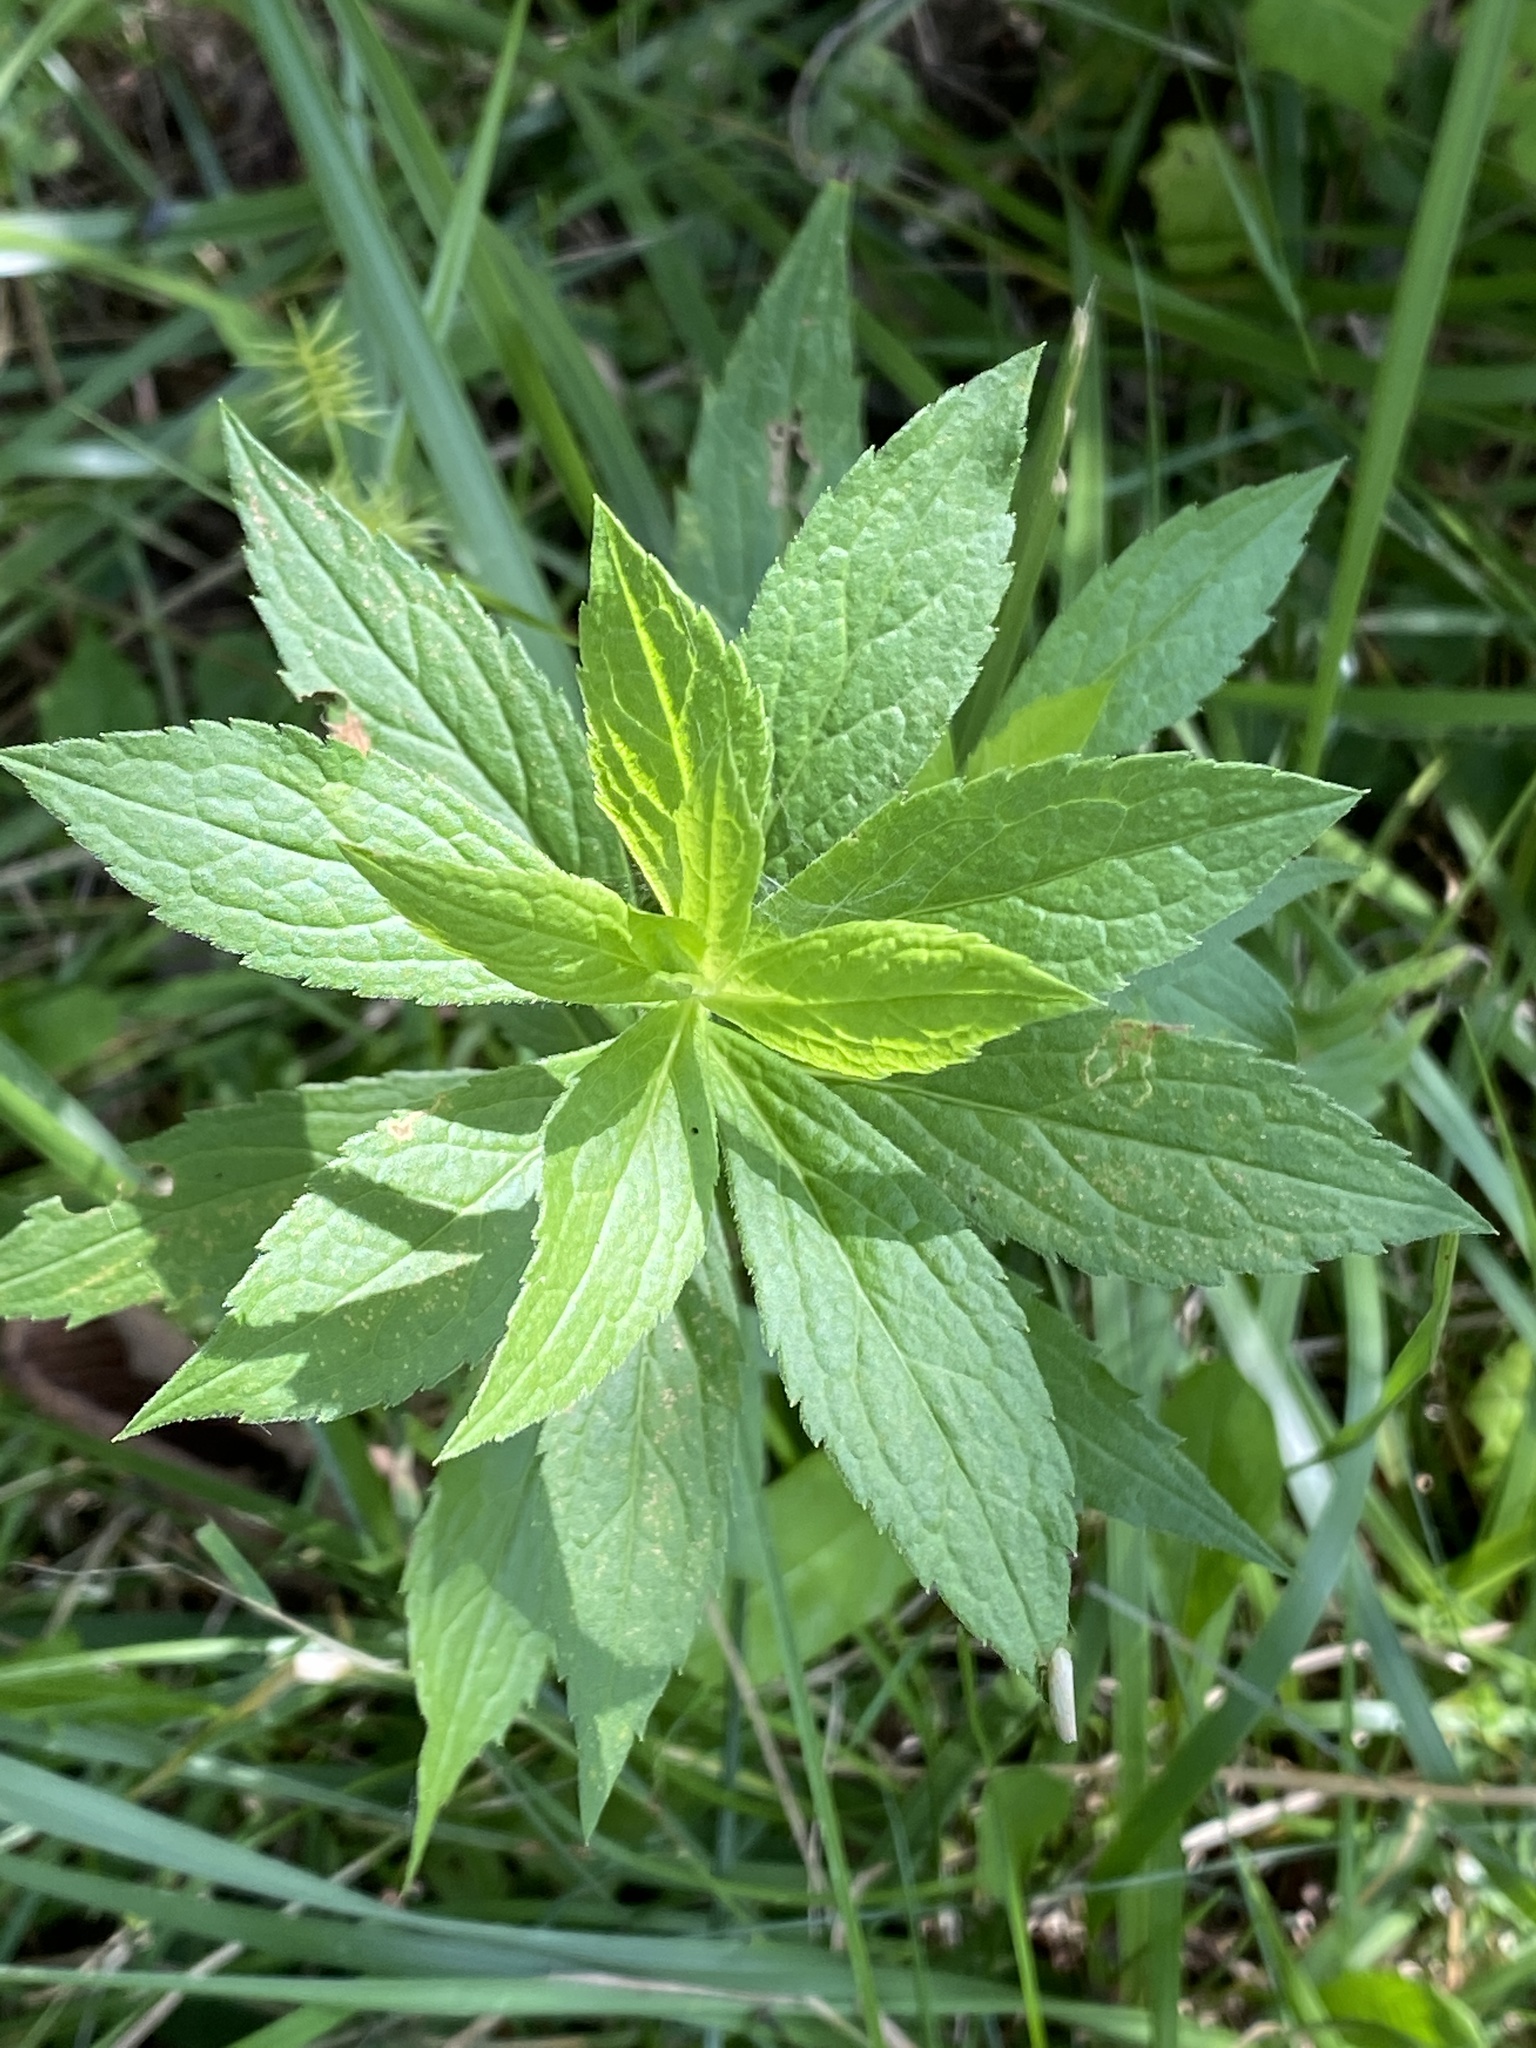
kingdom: Plantae
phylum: Tracheophyta
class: Magnoliopsida
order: Asterales
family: Asteraceae
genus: Solidago
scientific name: Solidago rugosa
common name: Rough-stemmed goldenrod
